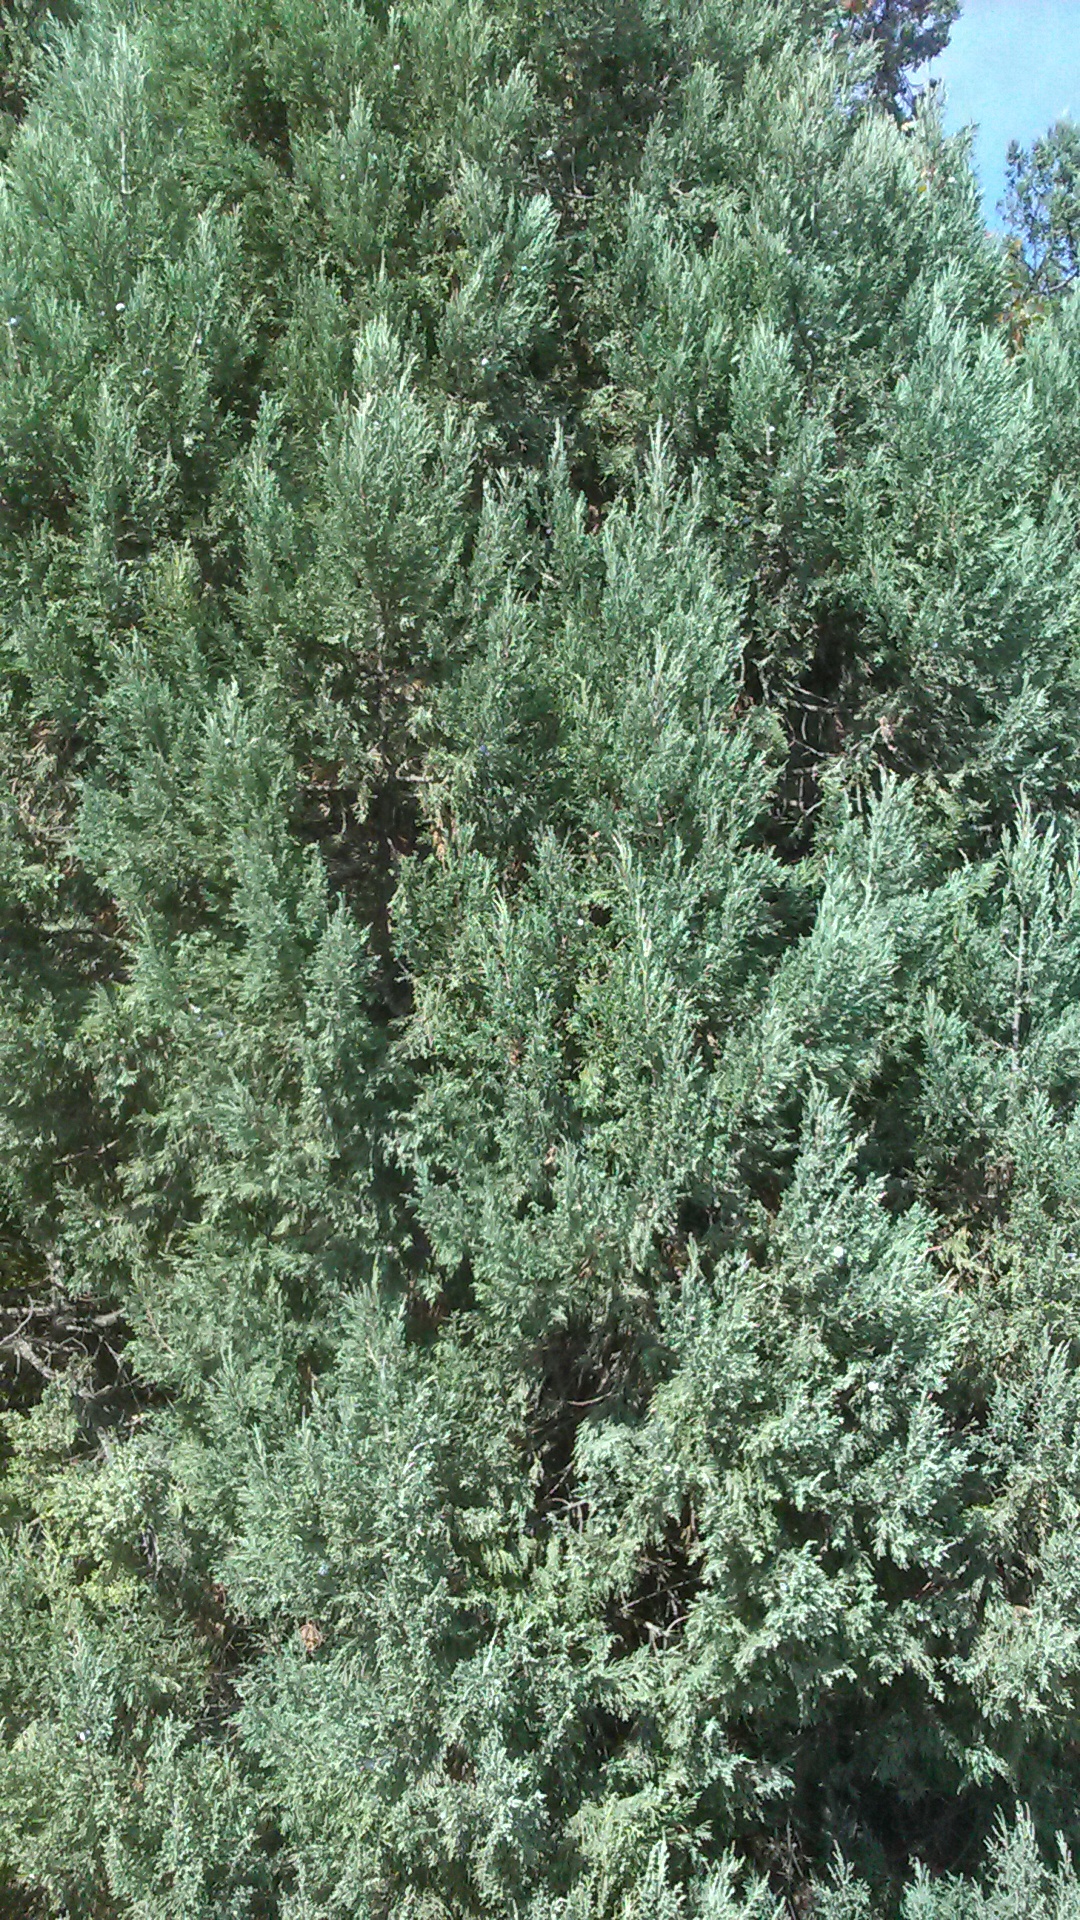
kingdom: Plantae
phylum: Tracheophyta
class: Pinopsida
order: Pinales
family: Cupressaceae
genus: Juniperus
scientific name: Juniperus excelsa
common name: Crimean juniper
